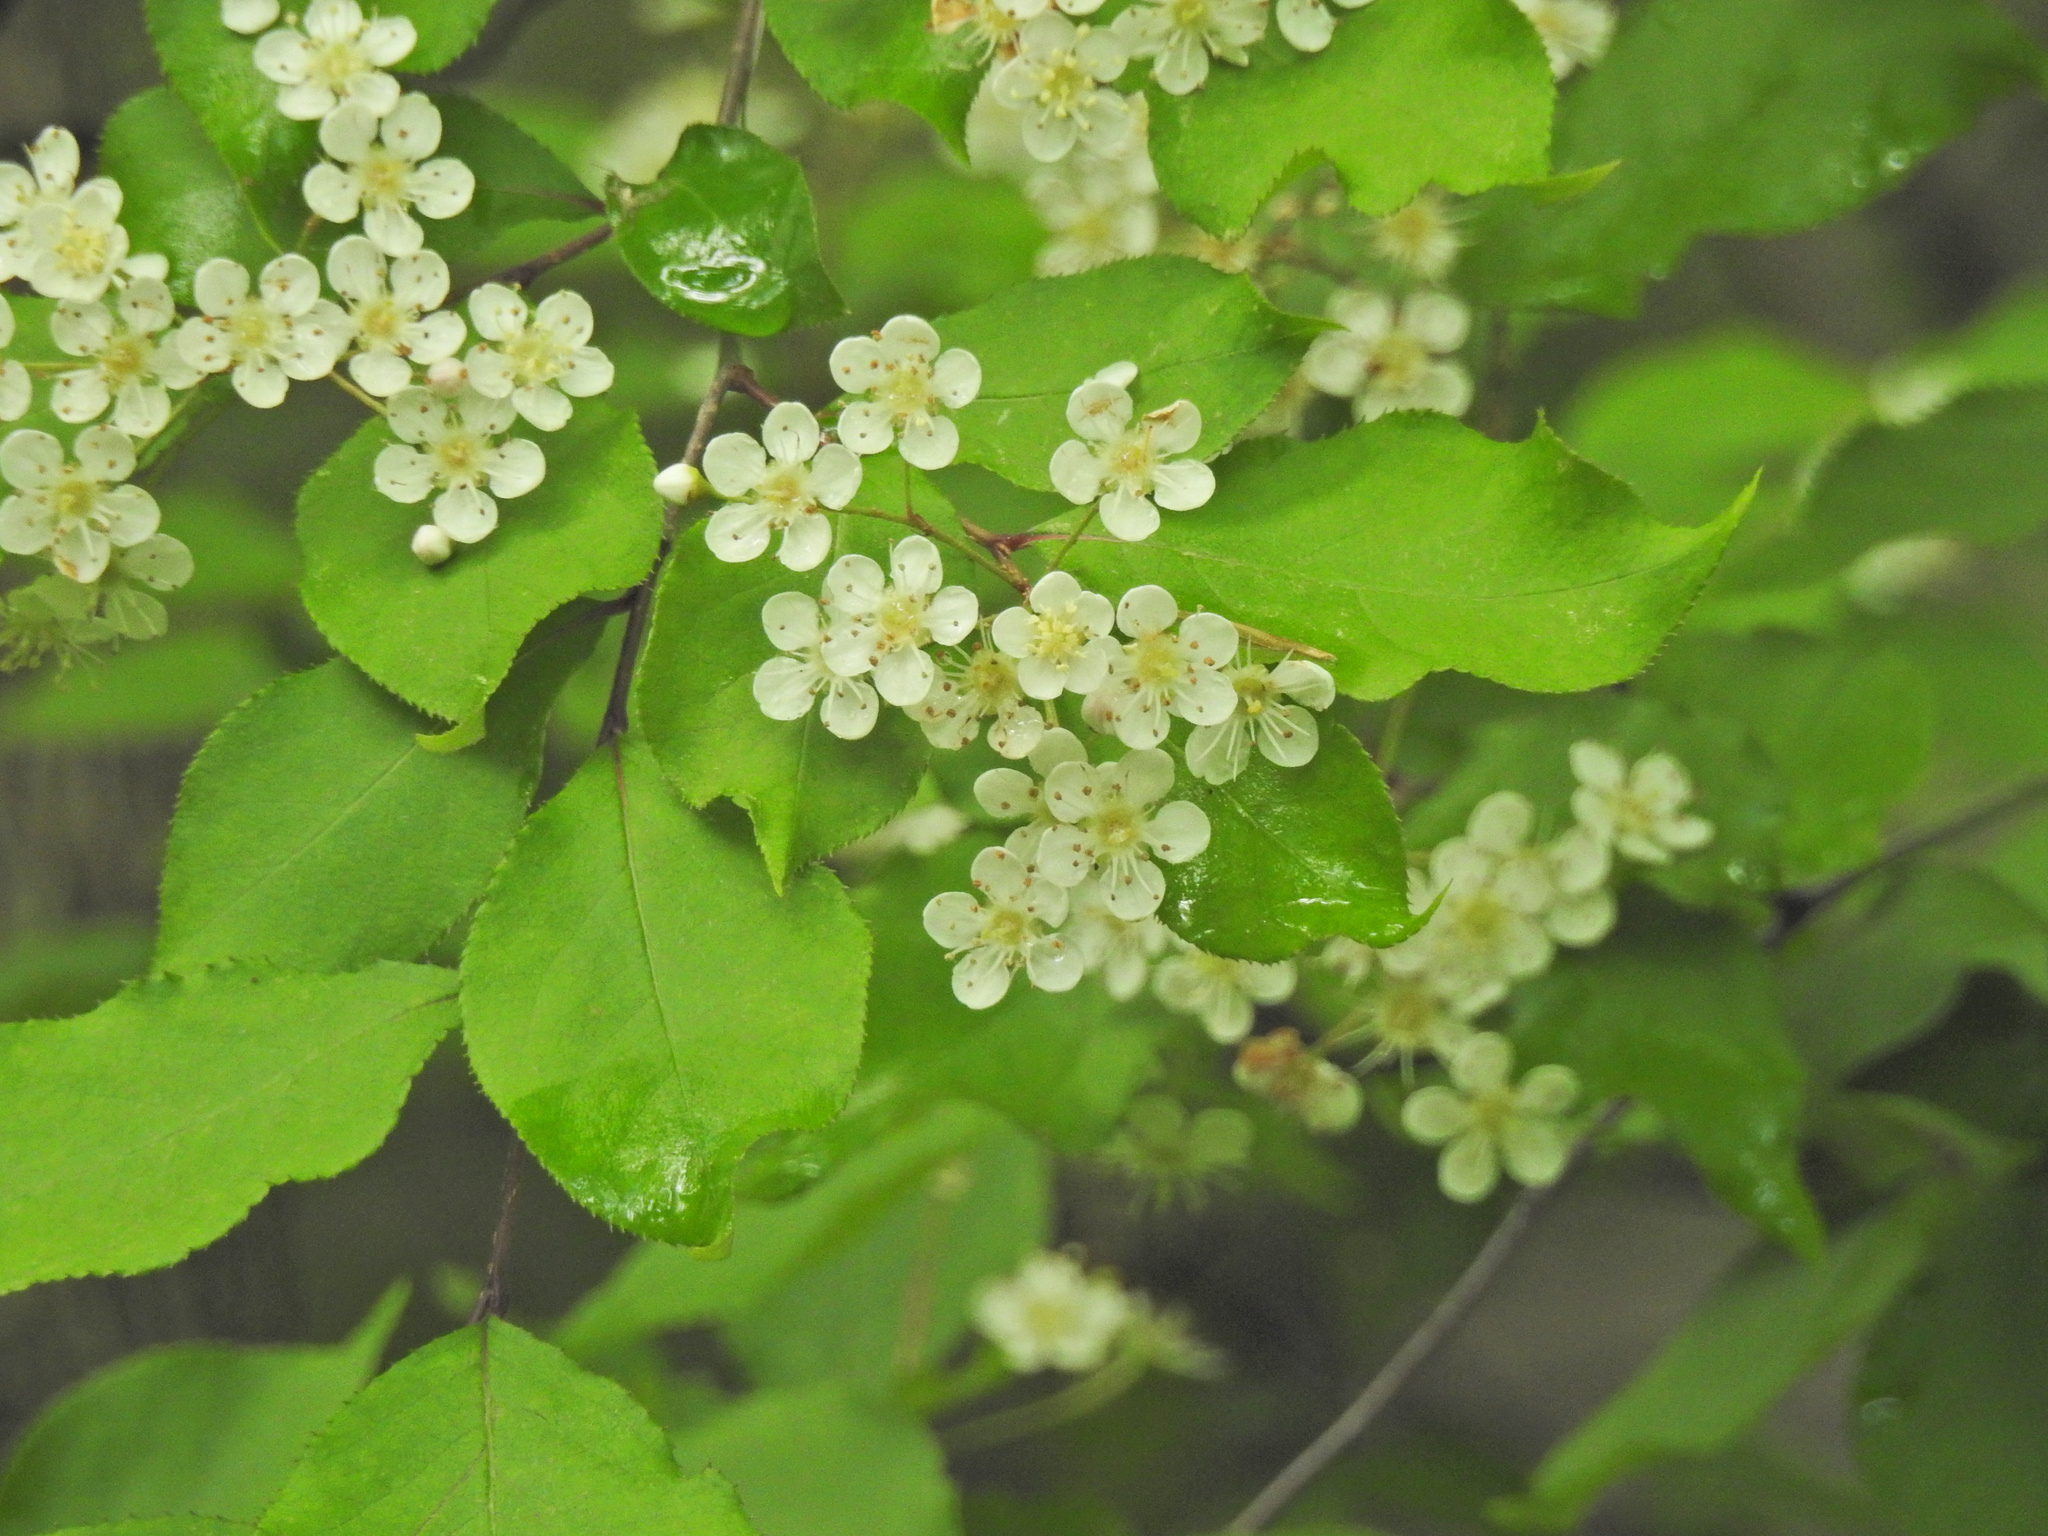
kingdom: Plantae
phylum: Tracheophyta
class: Magnoliopsida
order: Rosales
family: Rosaceae
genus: Pourthiaea
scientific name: Pourthiaea villosa
